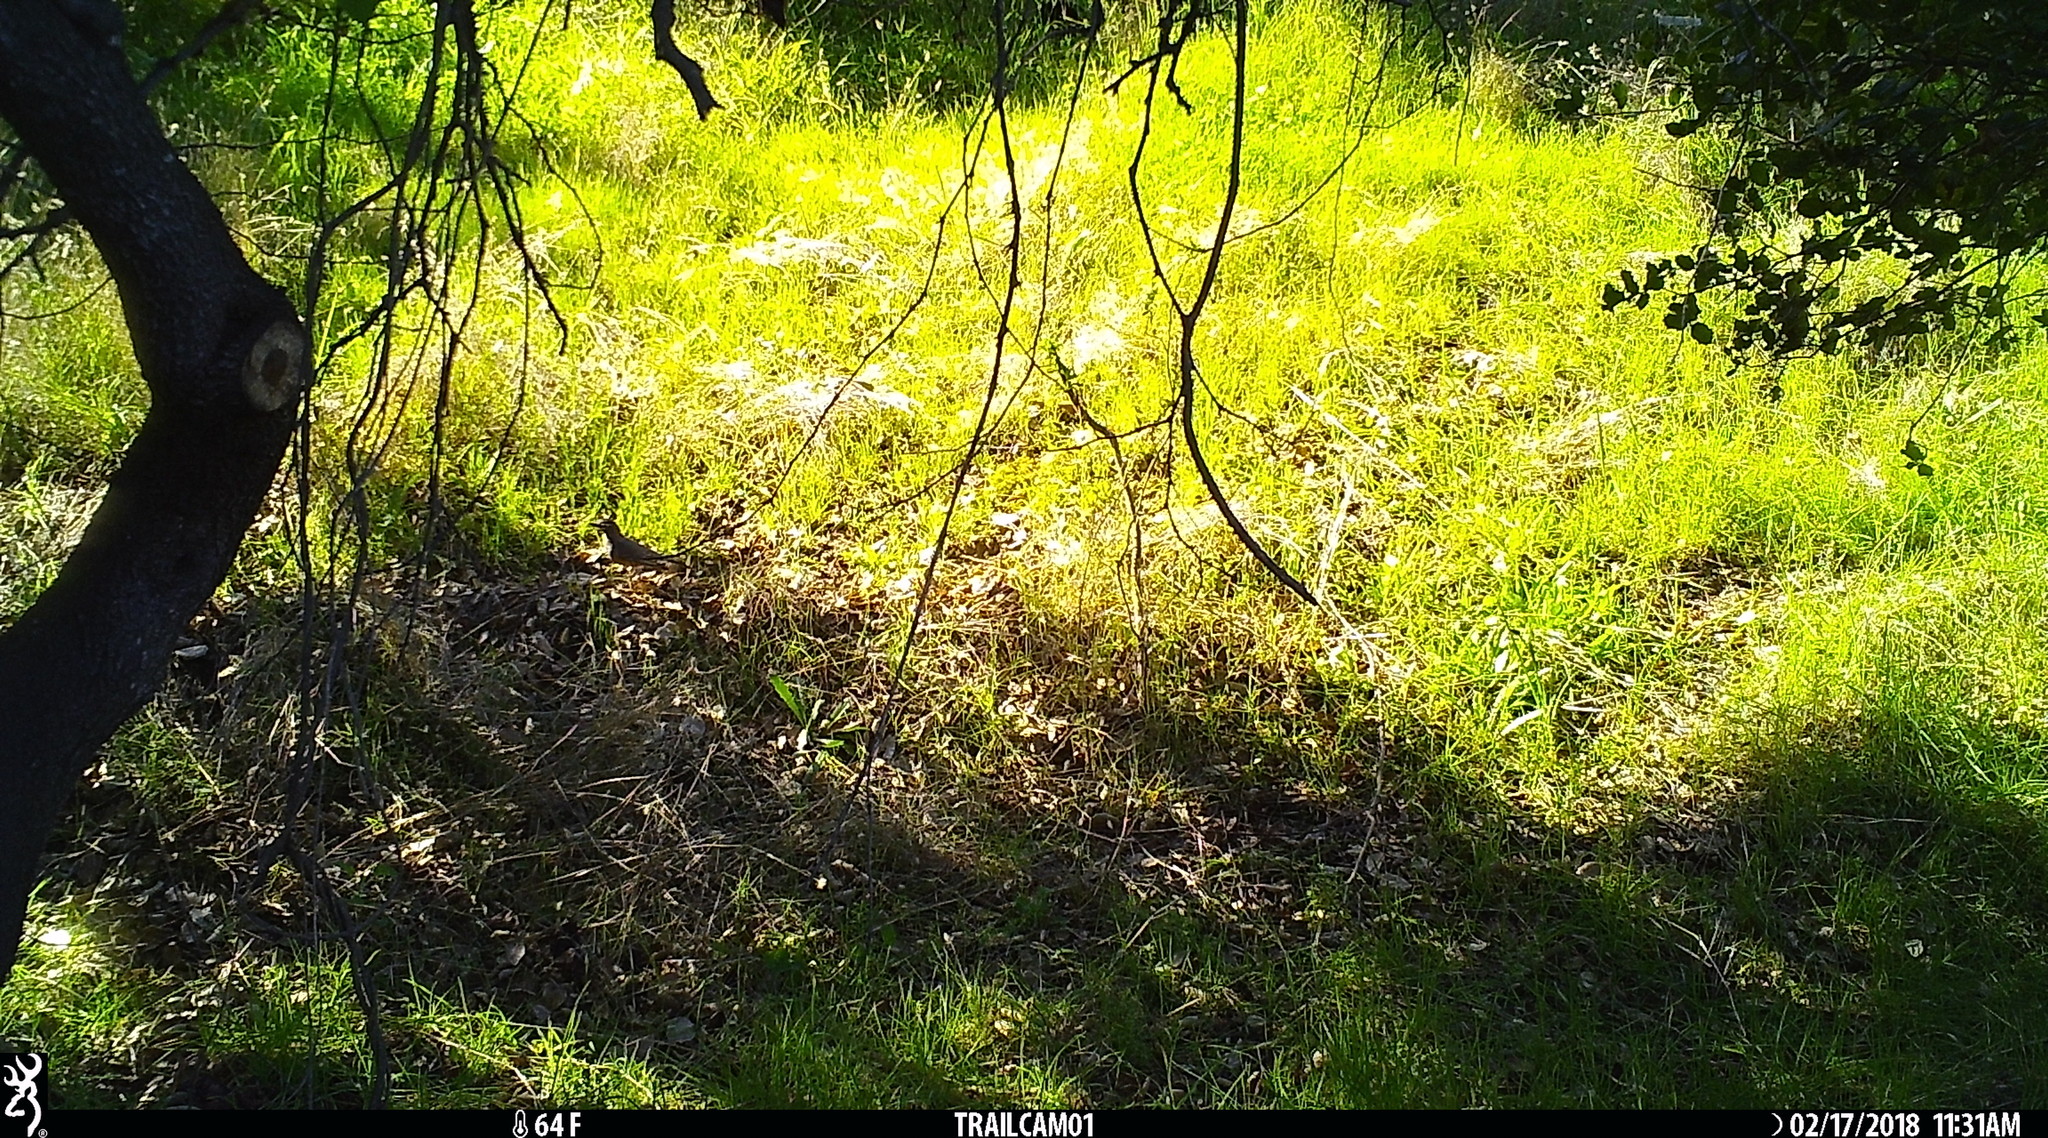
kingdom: Animalia
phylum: Chordata
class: Aves
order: Passeriformes
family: Turdidae
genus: Turdus
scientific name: Turdus migratorius
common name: American robin
